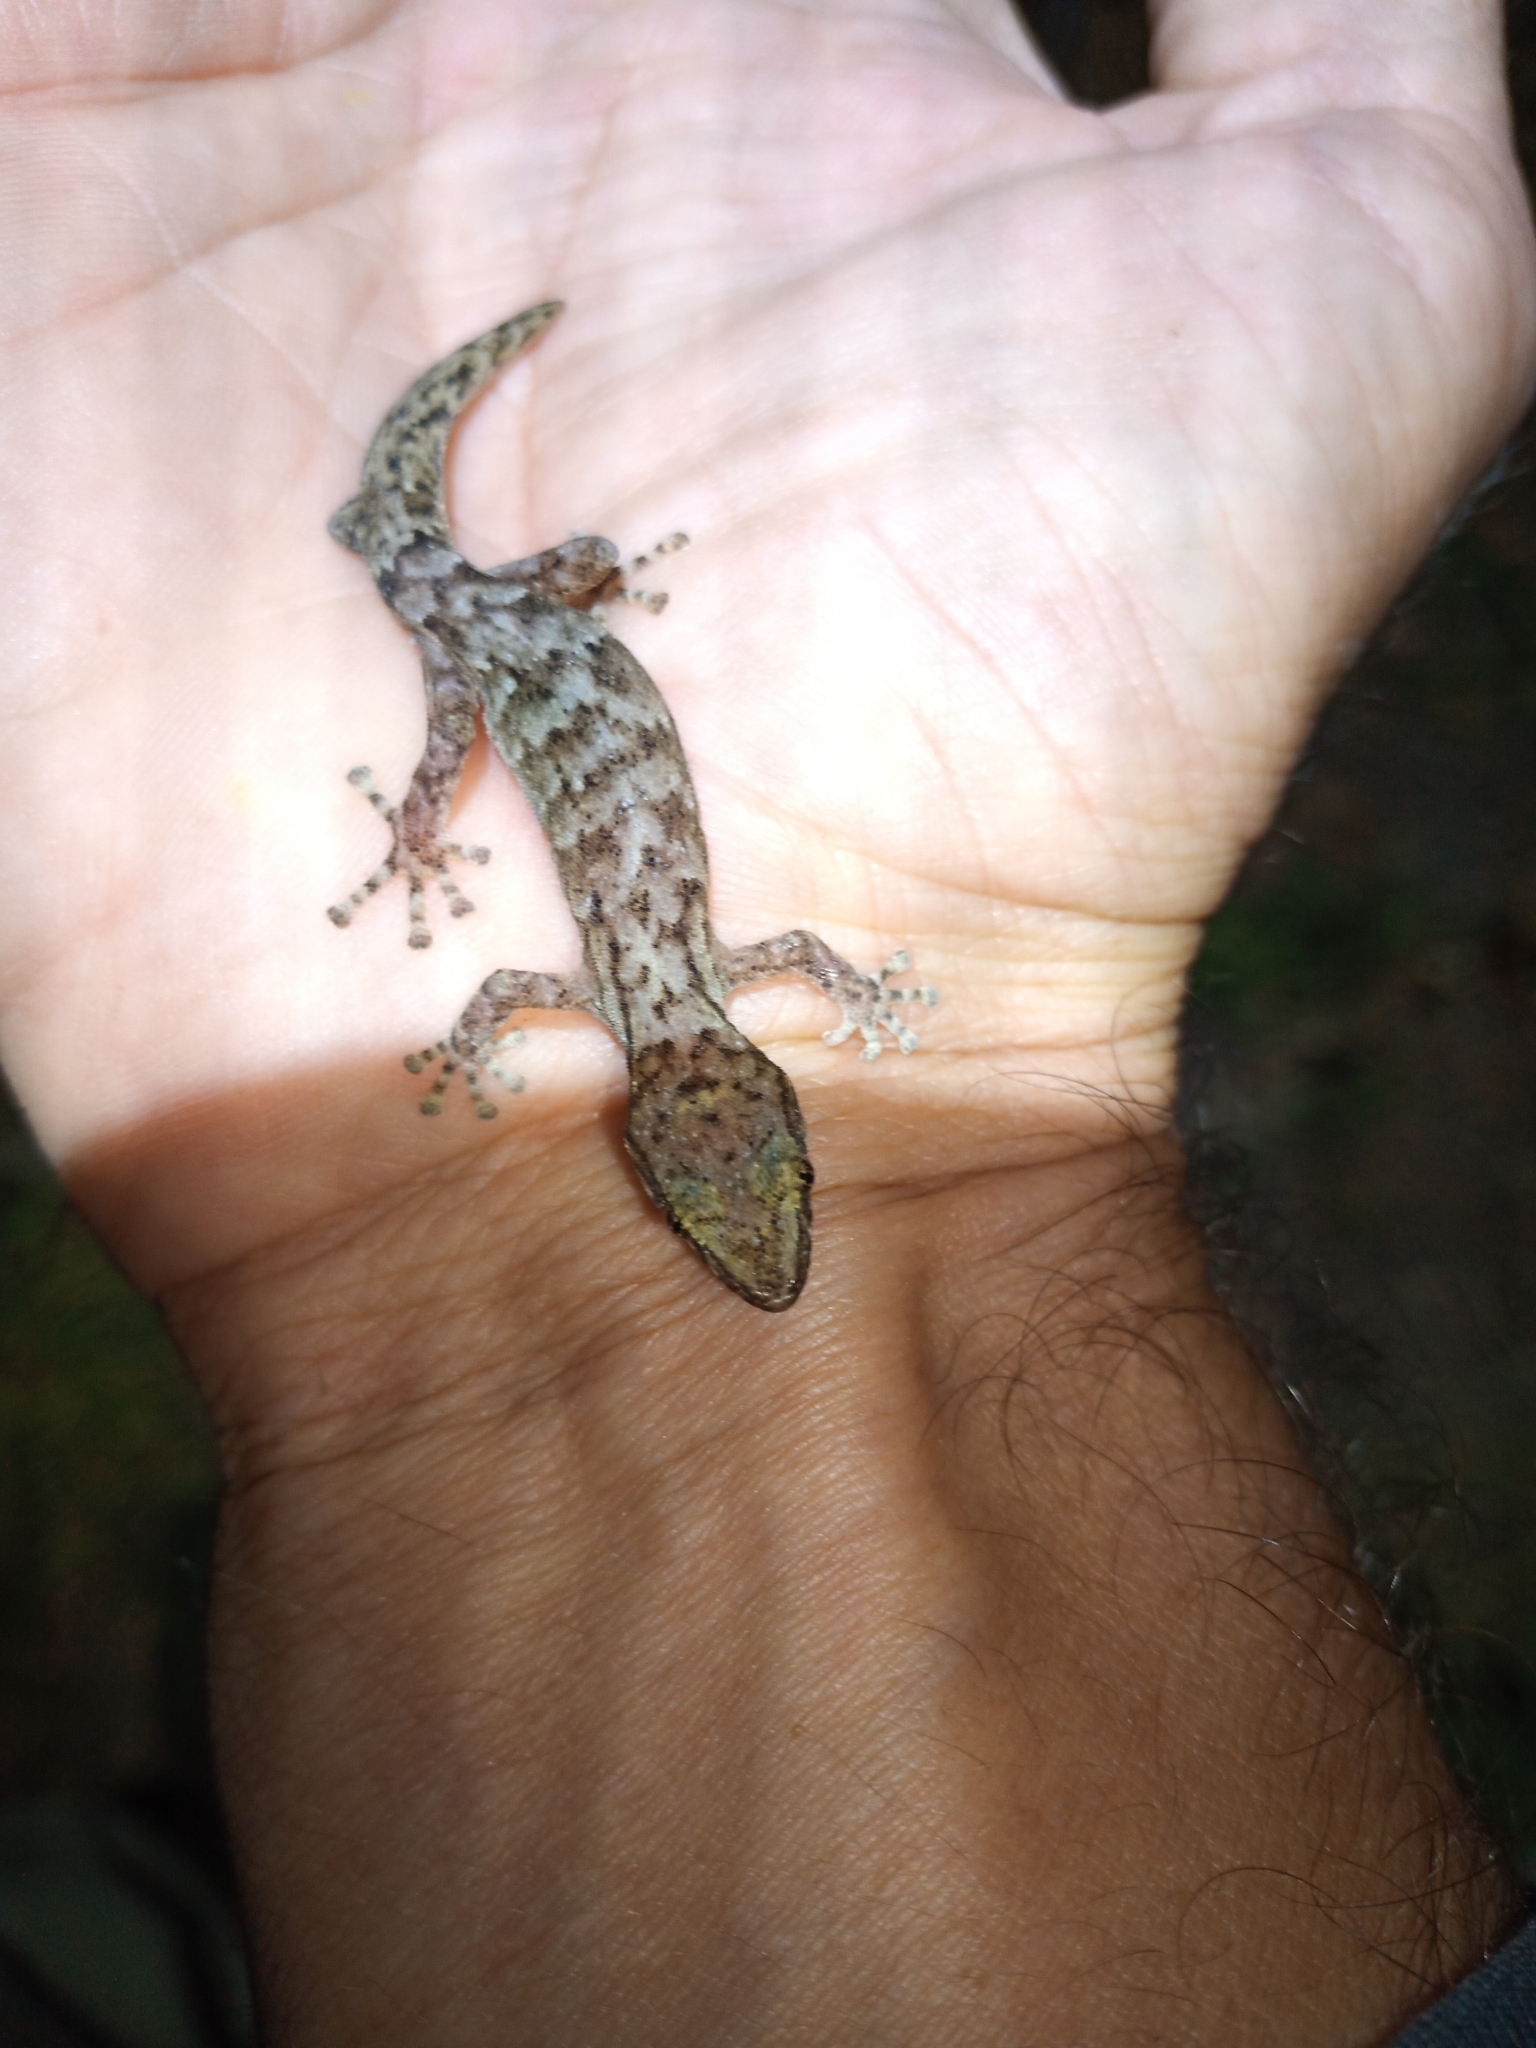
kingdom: Animalia
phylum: Chordata
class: Squamata
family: Gekkonidae
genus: Afrogecko
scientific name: Afrogecko porphyreus
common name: Marbled leaf-toed gecko
